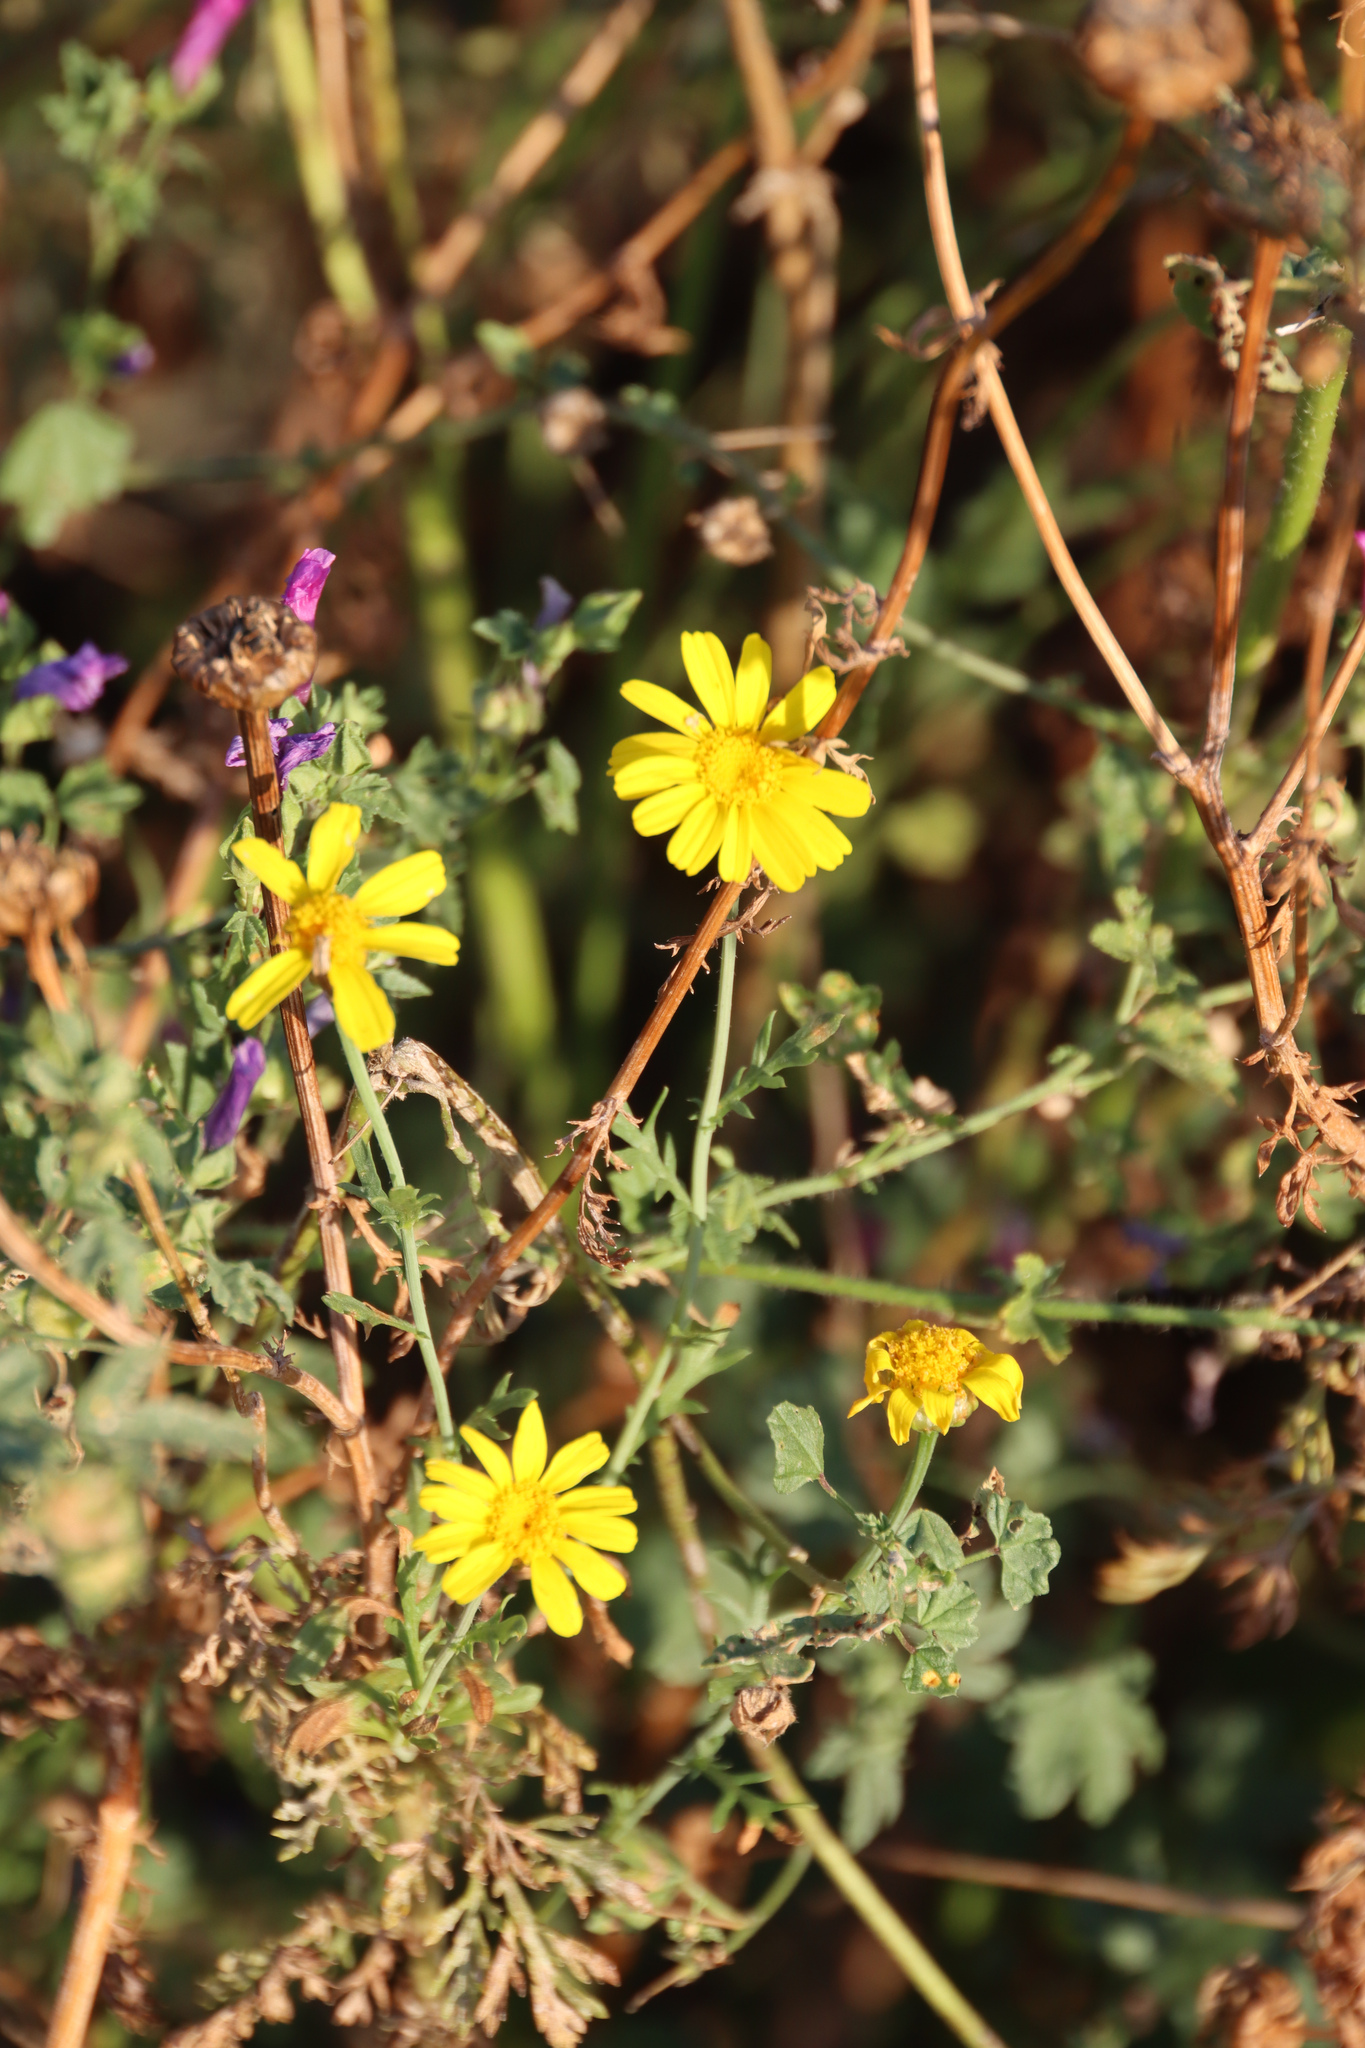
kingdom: Plantae
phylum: Tracheophyta
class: Magnoliopsida
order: Asterales
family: Asteraceae
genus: Glebionis
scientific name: Glebionis coronaria
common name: Crowndaisy
